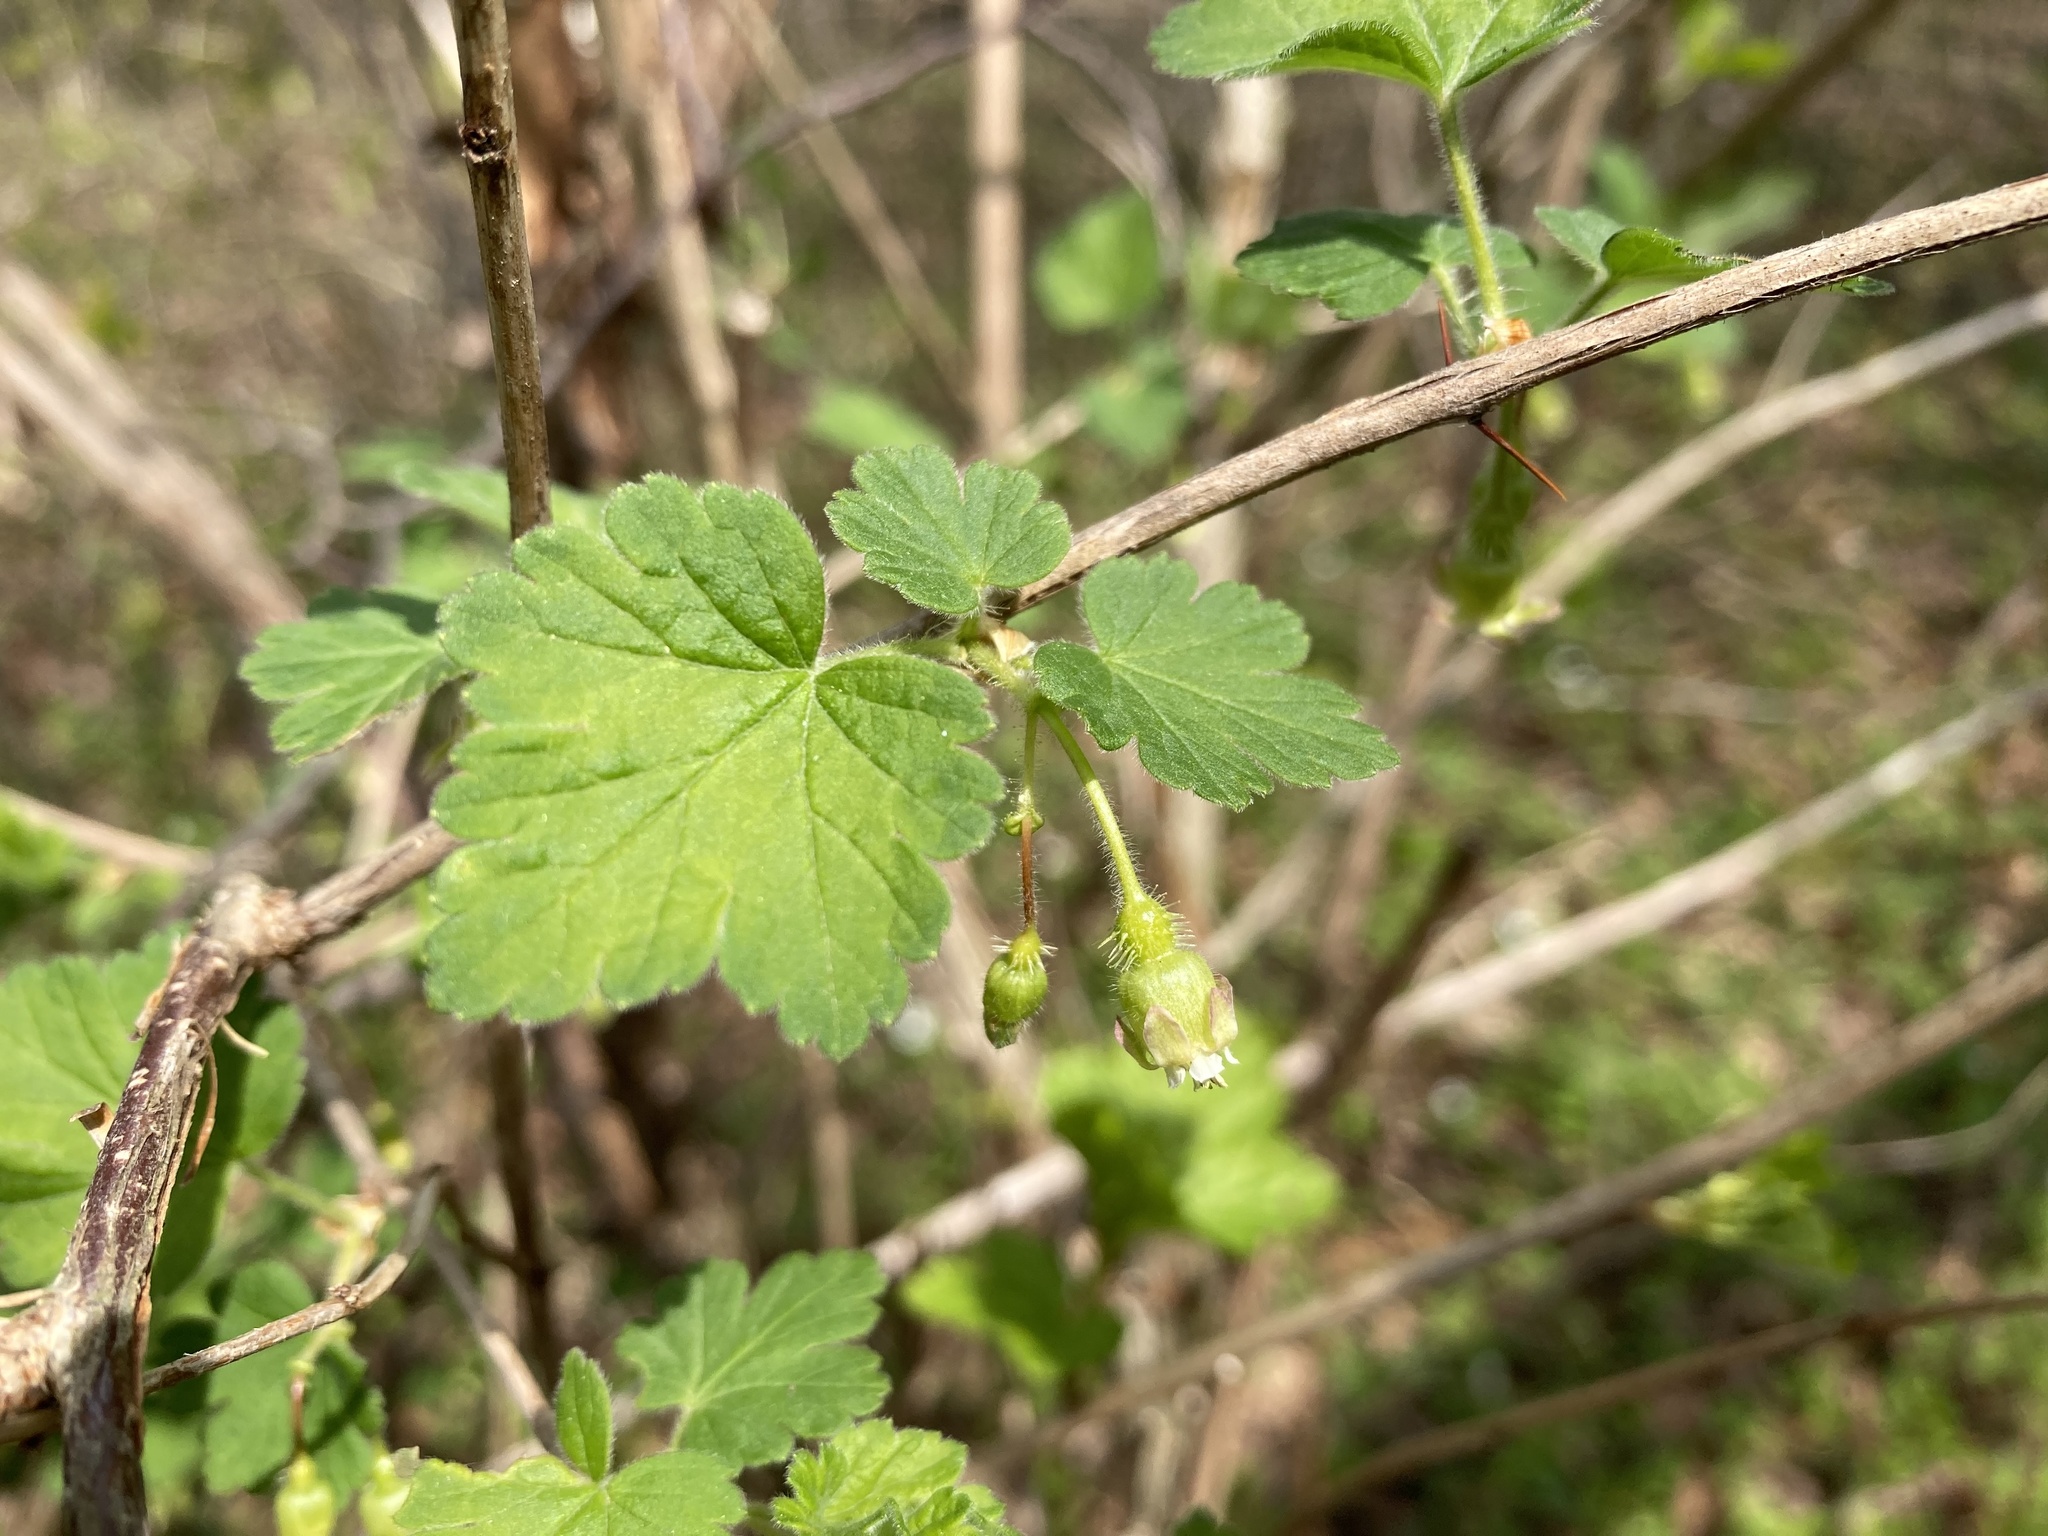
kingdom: Plantae
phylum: Tracheophyta
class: Magnoliopsida
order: Saxifragales
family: Grossulariaceae
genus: Ribes
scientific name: Ribes cynosbati
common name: American gooseberry
